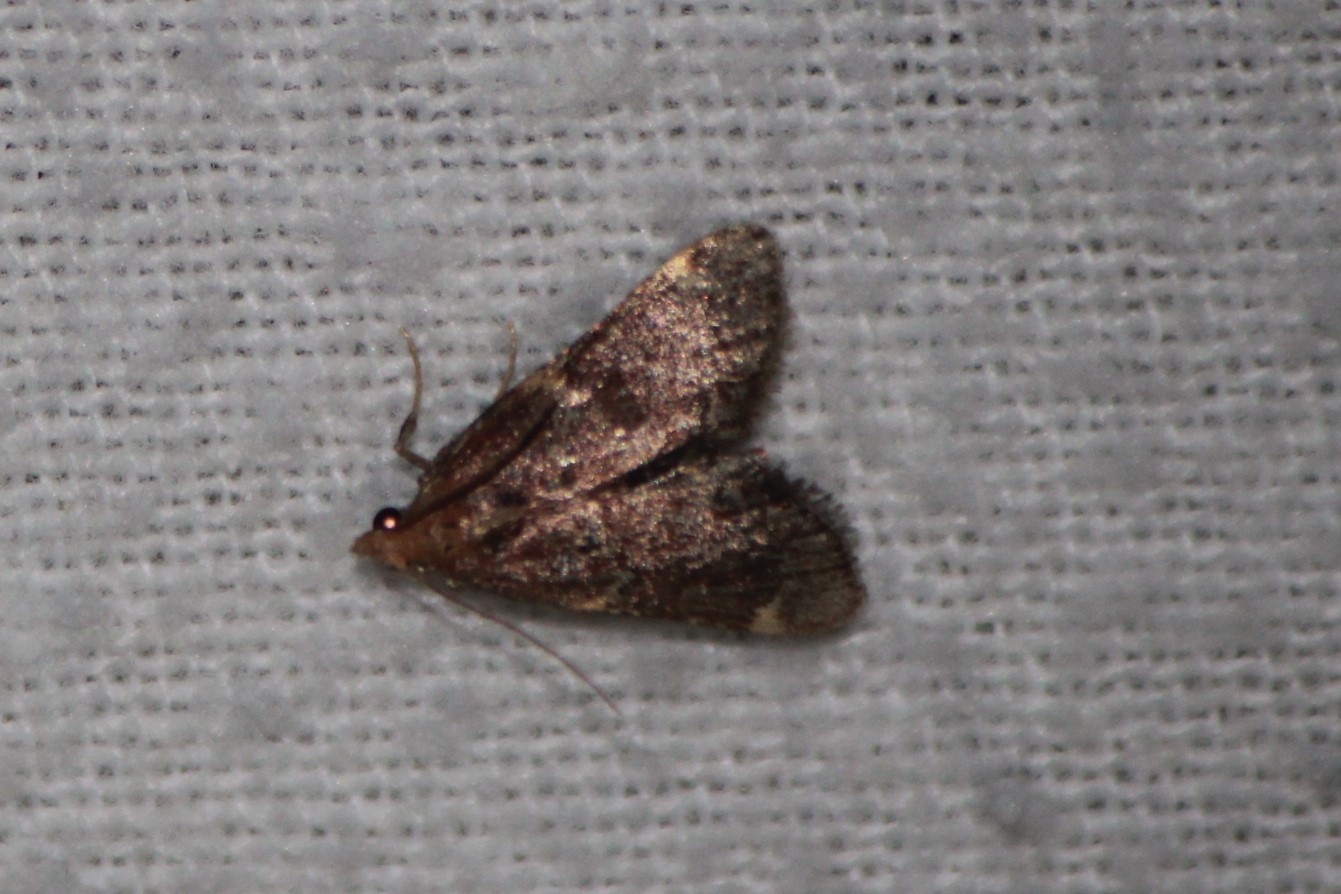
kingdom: Animalia
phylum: Arthropoda
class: Insecta
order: Lepidoptera
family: Pyralidae
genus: Hypsopygia
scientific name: Hypsopygia intermedialis
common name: Red-shawled moth
